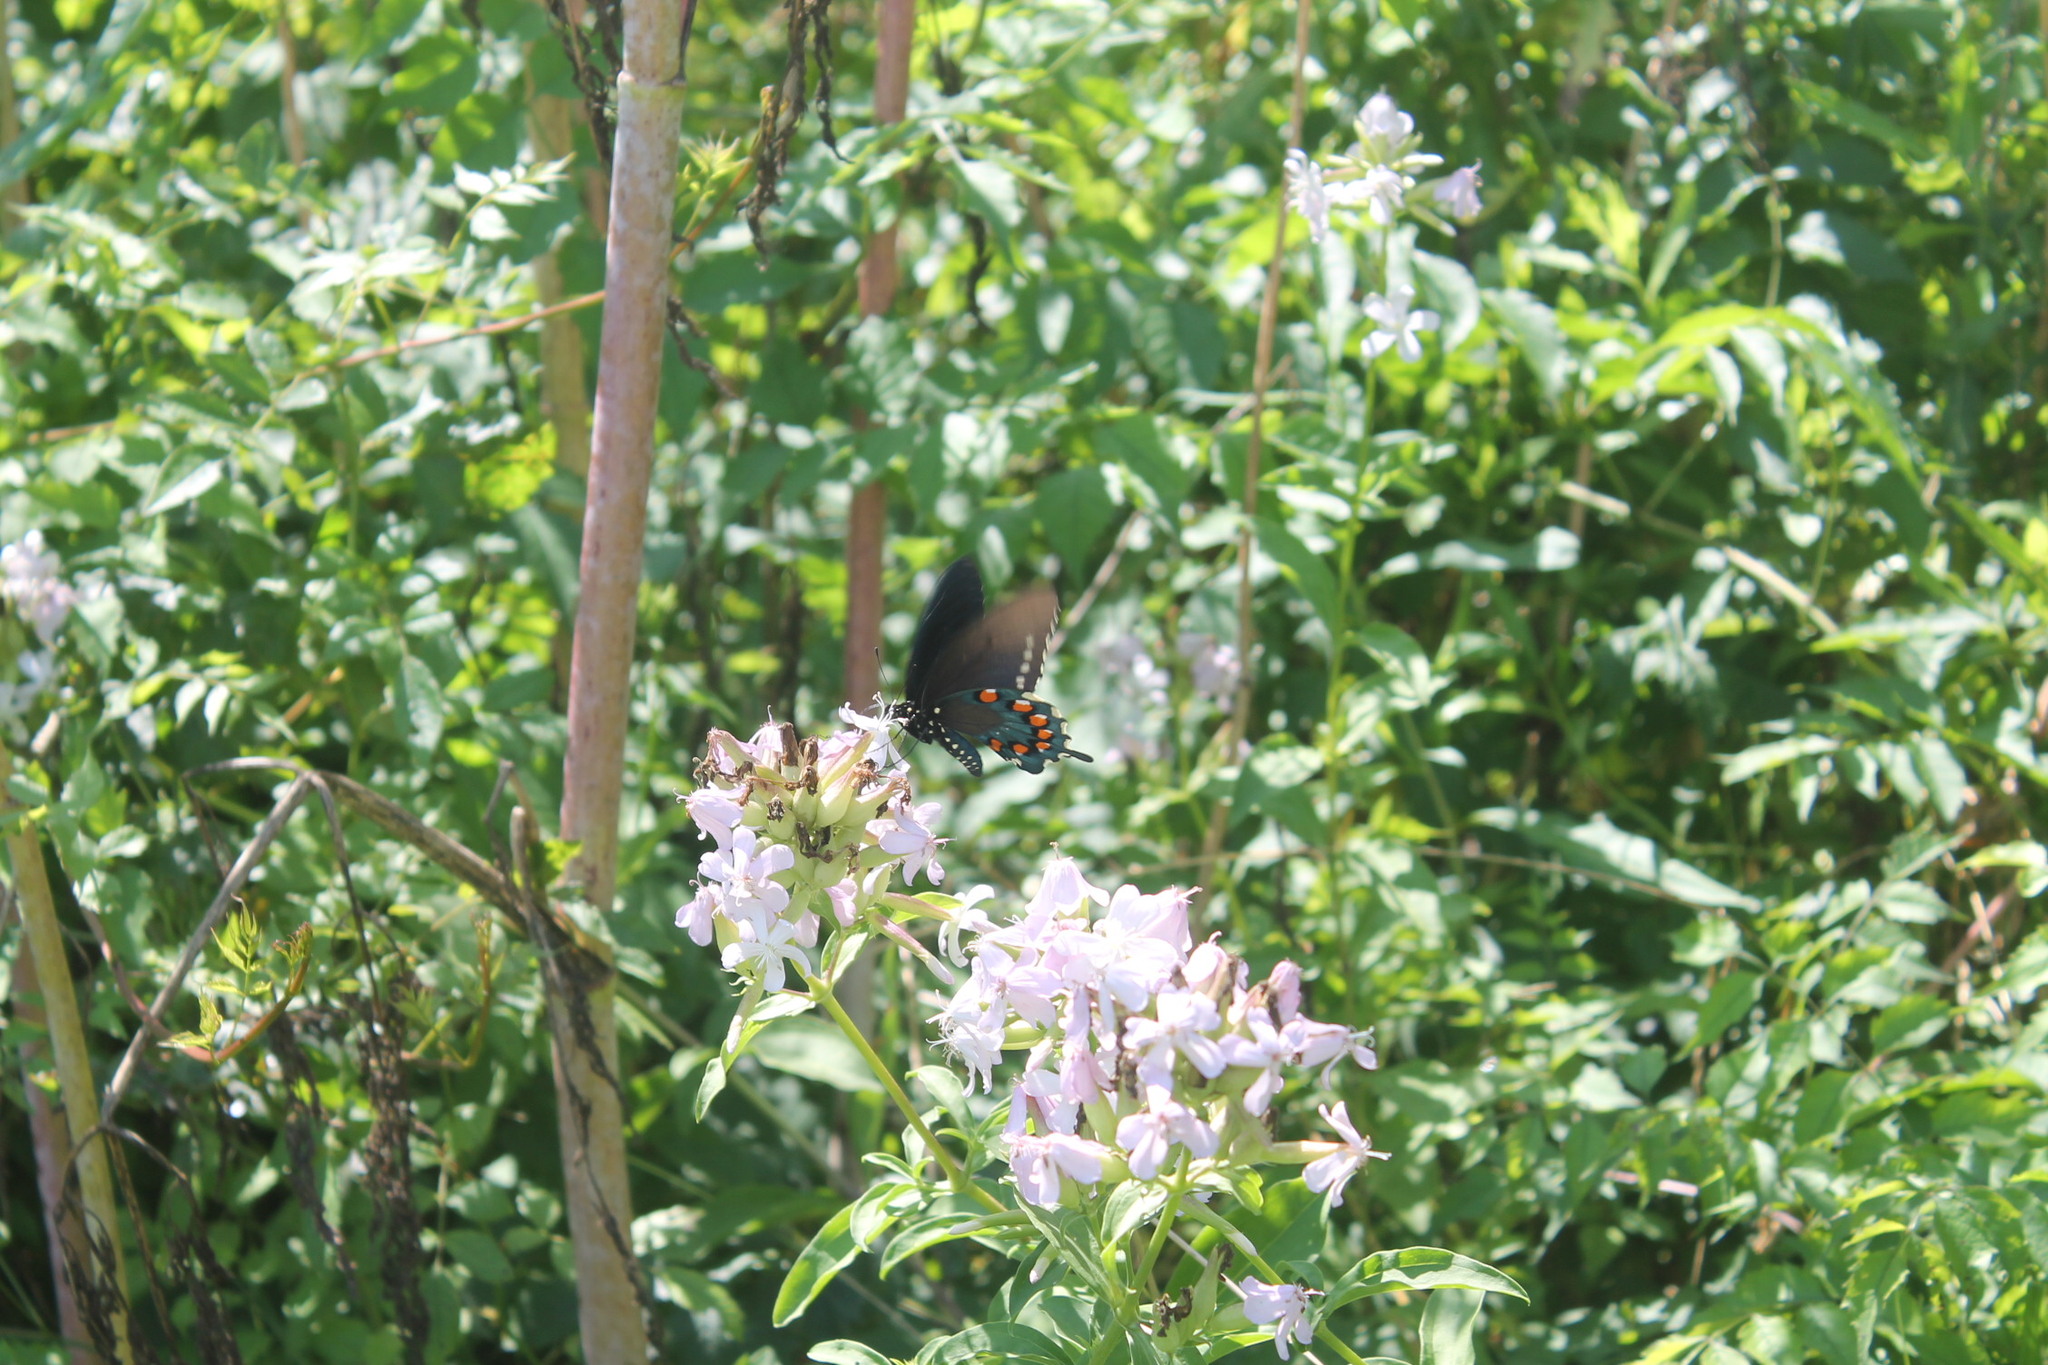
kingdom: Animalia
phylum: Arthropoda
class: Insecta
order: Lepidoptera
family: Papilionidae
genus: Battus
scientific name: Battus philenor
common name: Pipevine swallowtail
